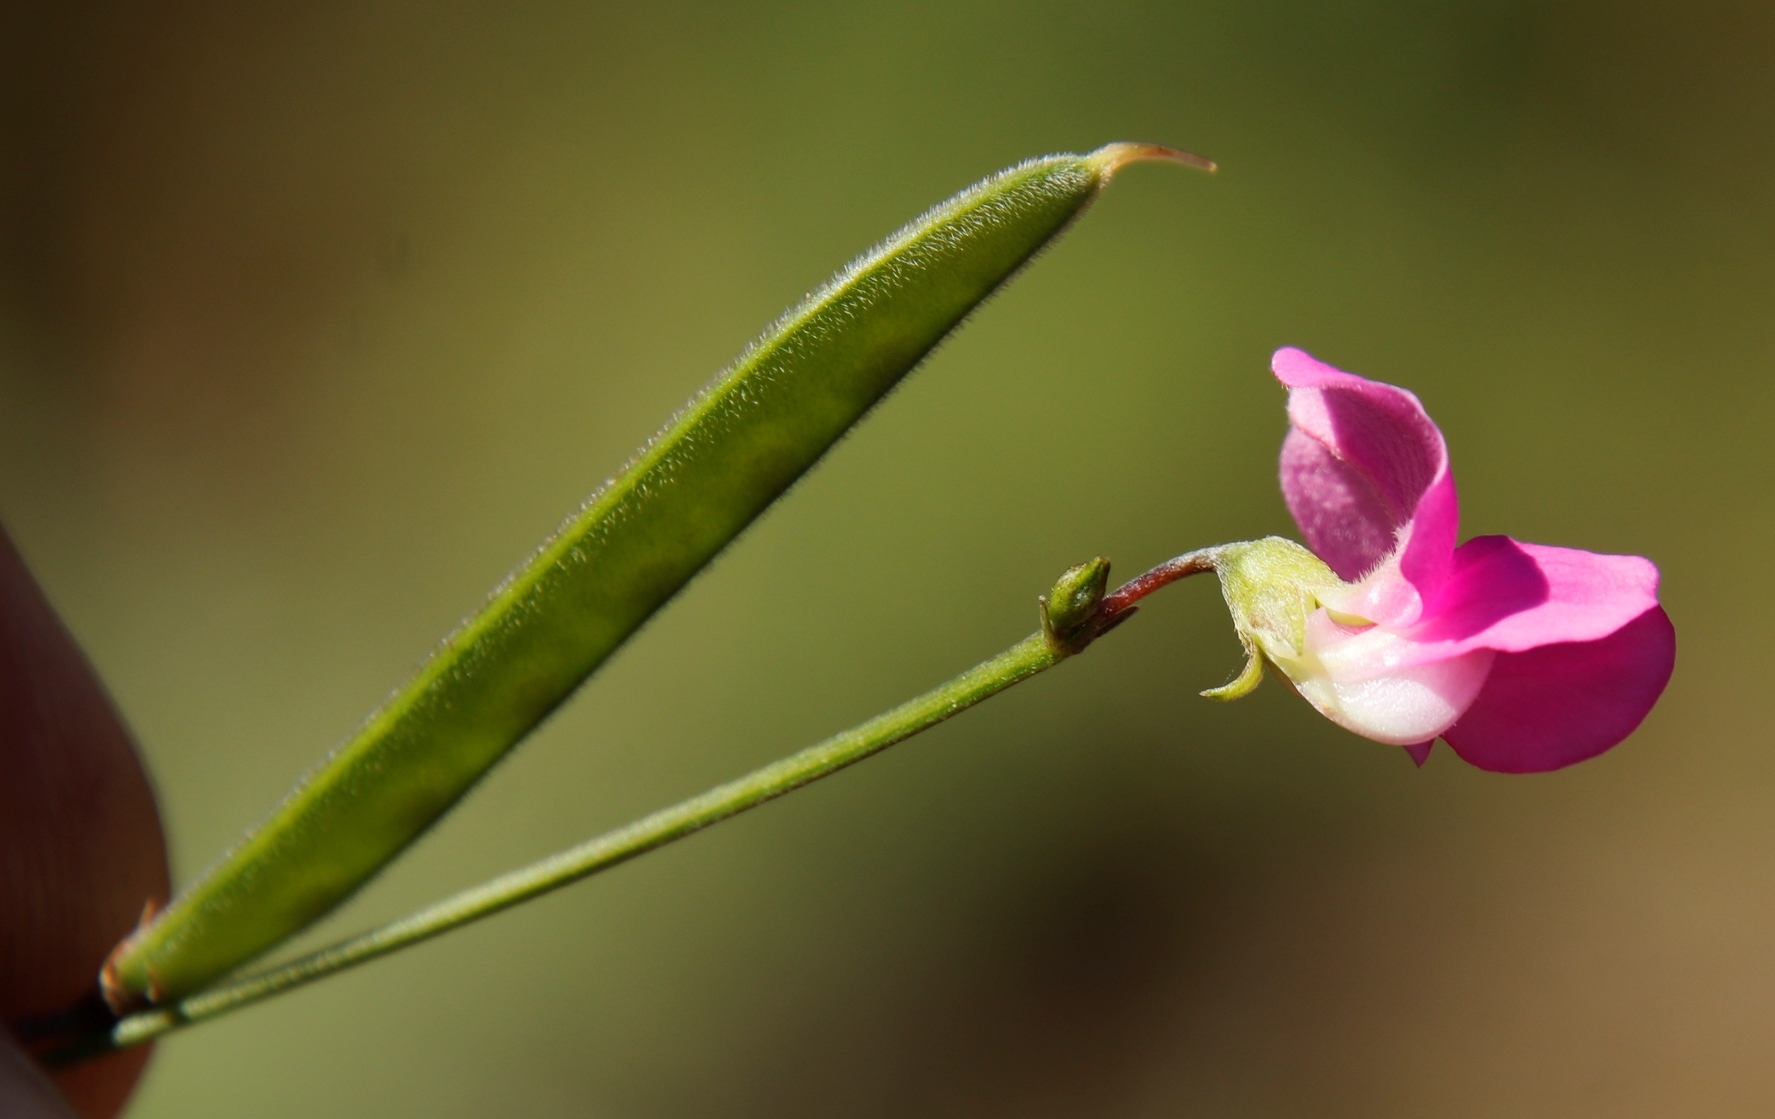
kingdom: Plantae
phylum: Tracheophyta
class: Magnoliopsida
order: Fabales
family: Fabaceae
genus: Tephrosia
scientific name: Tephrosia capensis
